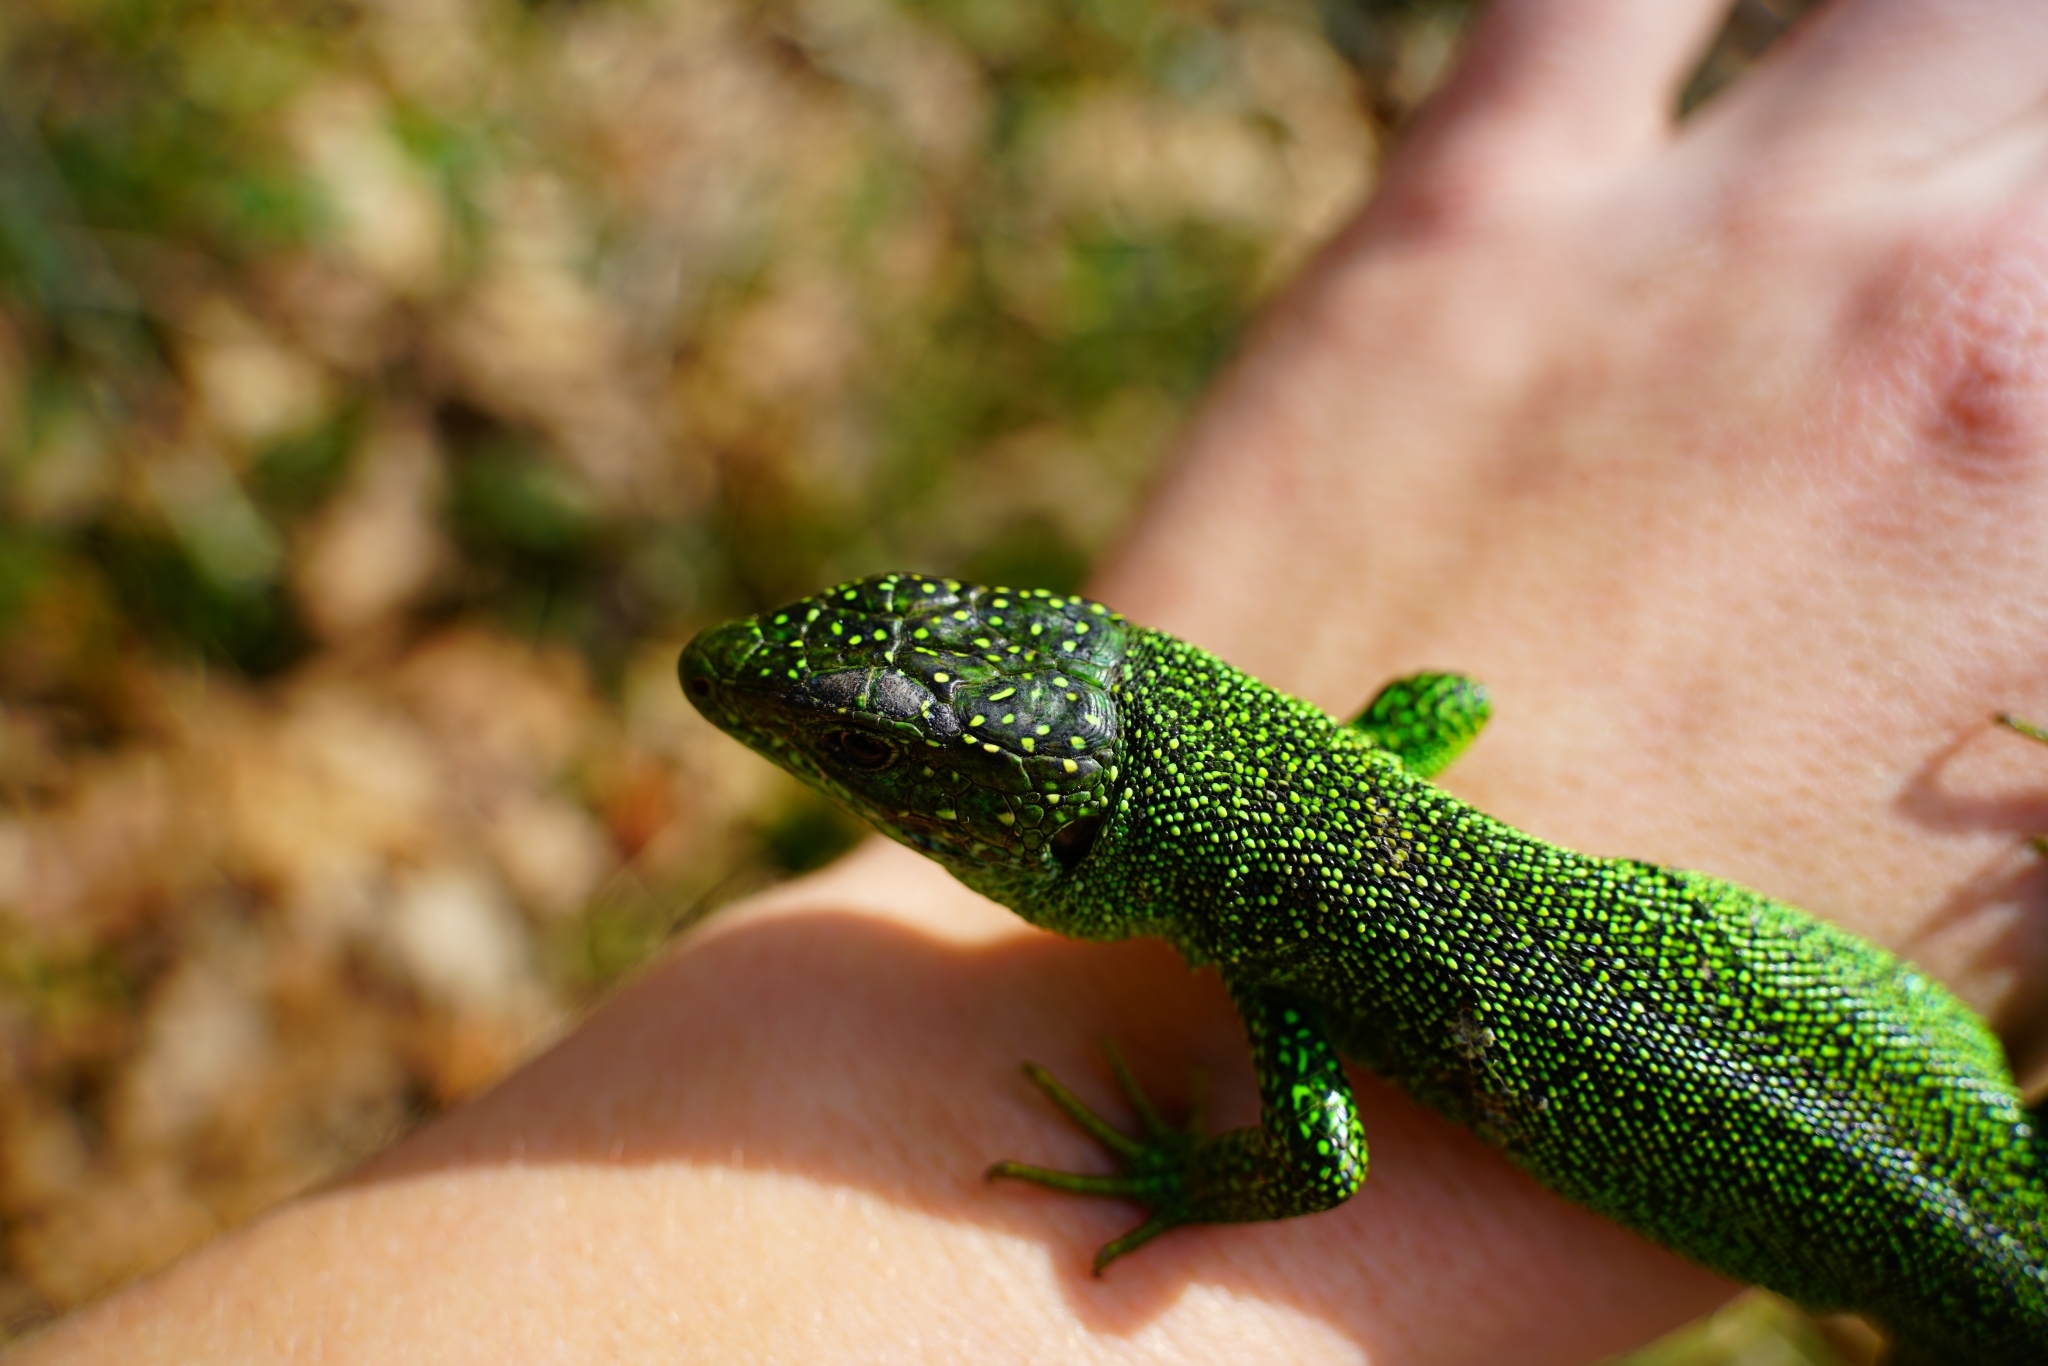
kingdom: Animalia
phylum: Chordata
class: Squamata
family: Lacertidae
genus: Lacerta
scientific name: Lacerta bilineata
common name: Western green lizard
